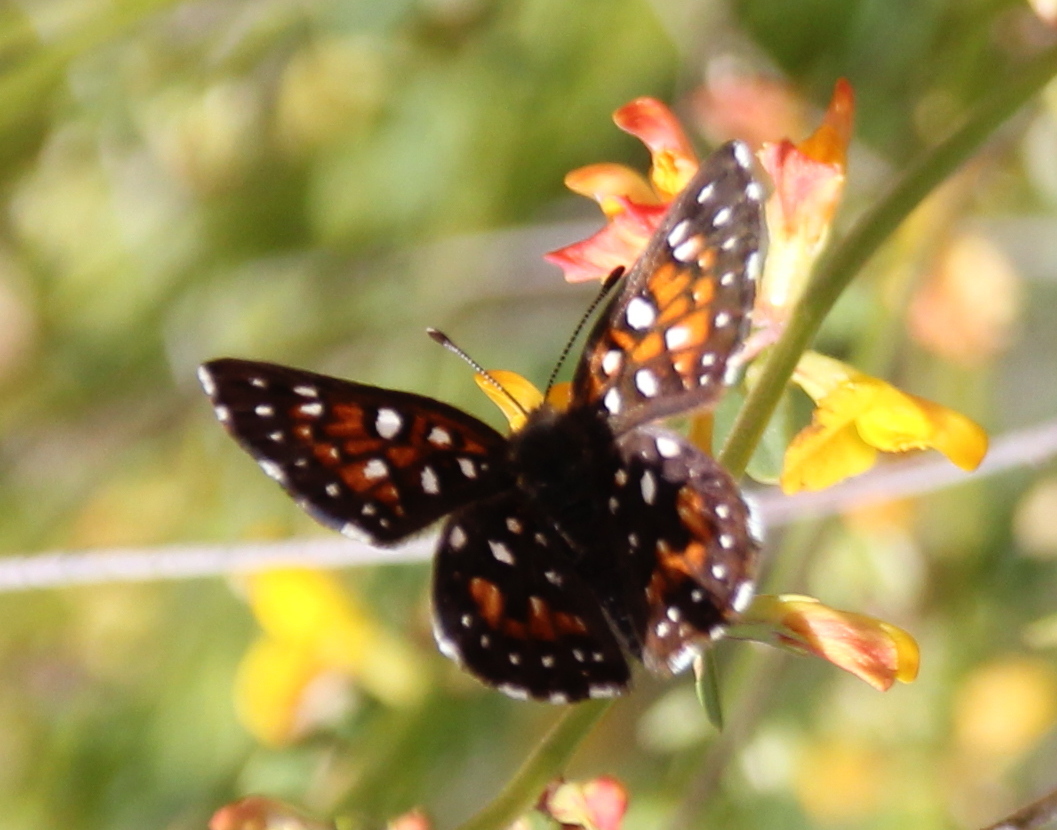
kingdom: Animalia
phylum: Arthropoda
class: Insecta
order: Lepidoptera
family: Riodinidae
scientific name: Riodinidae
